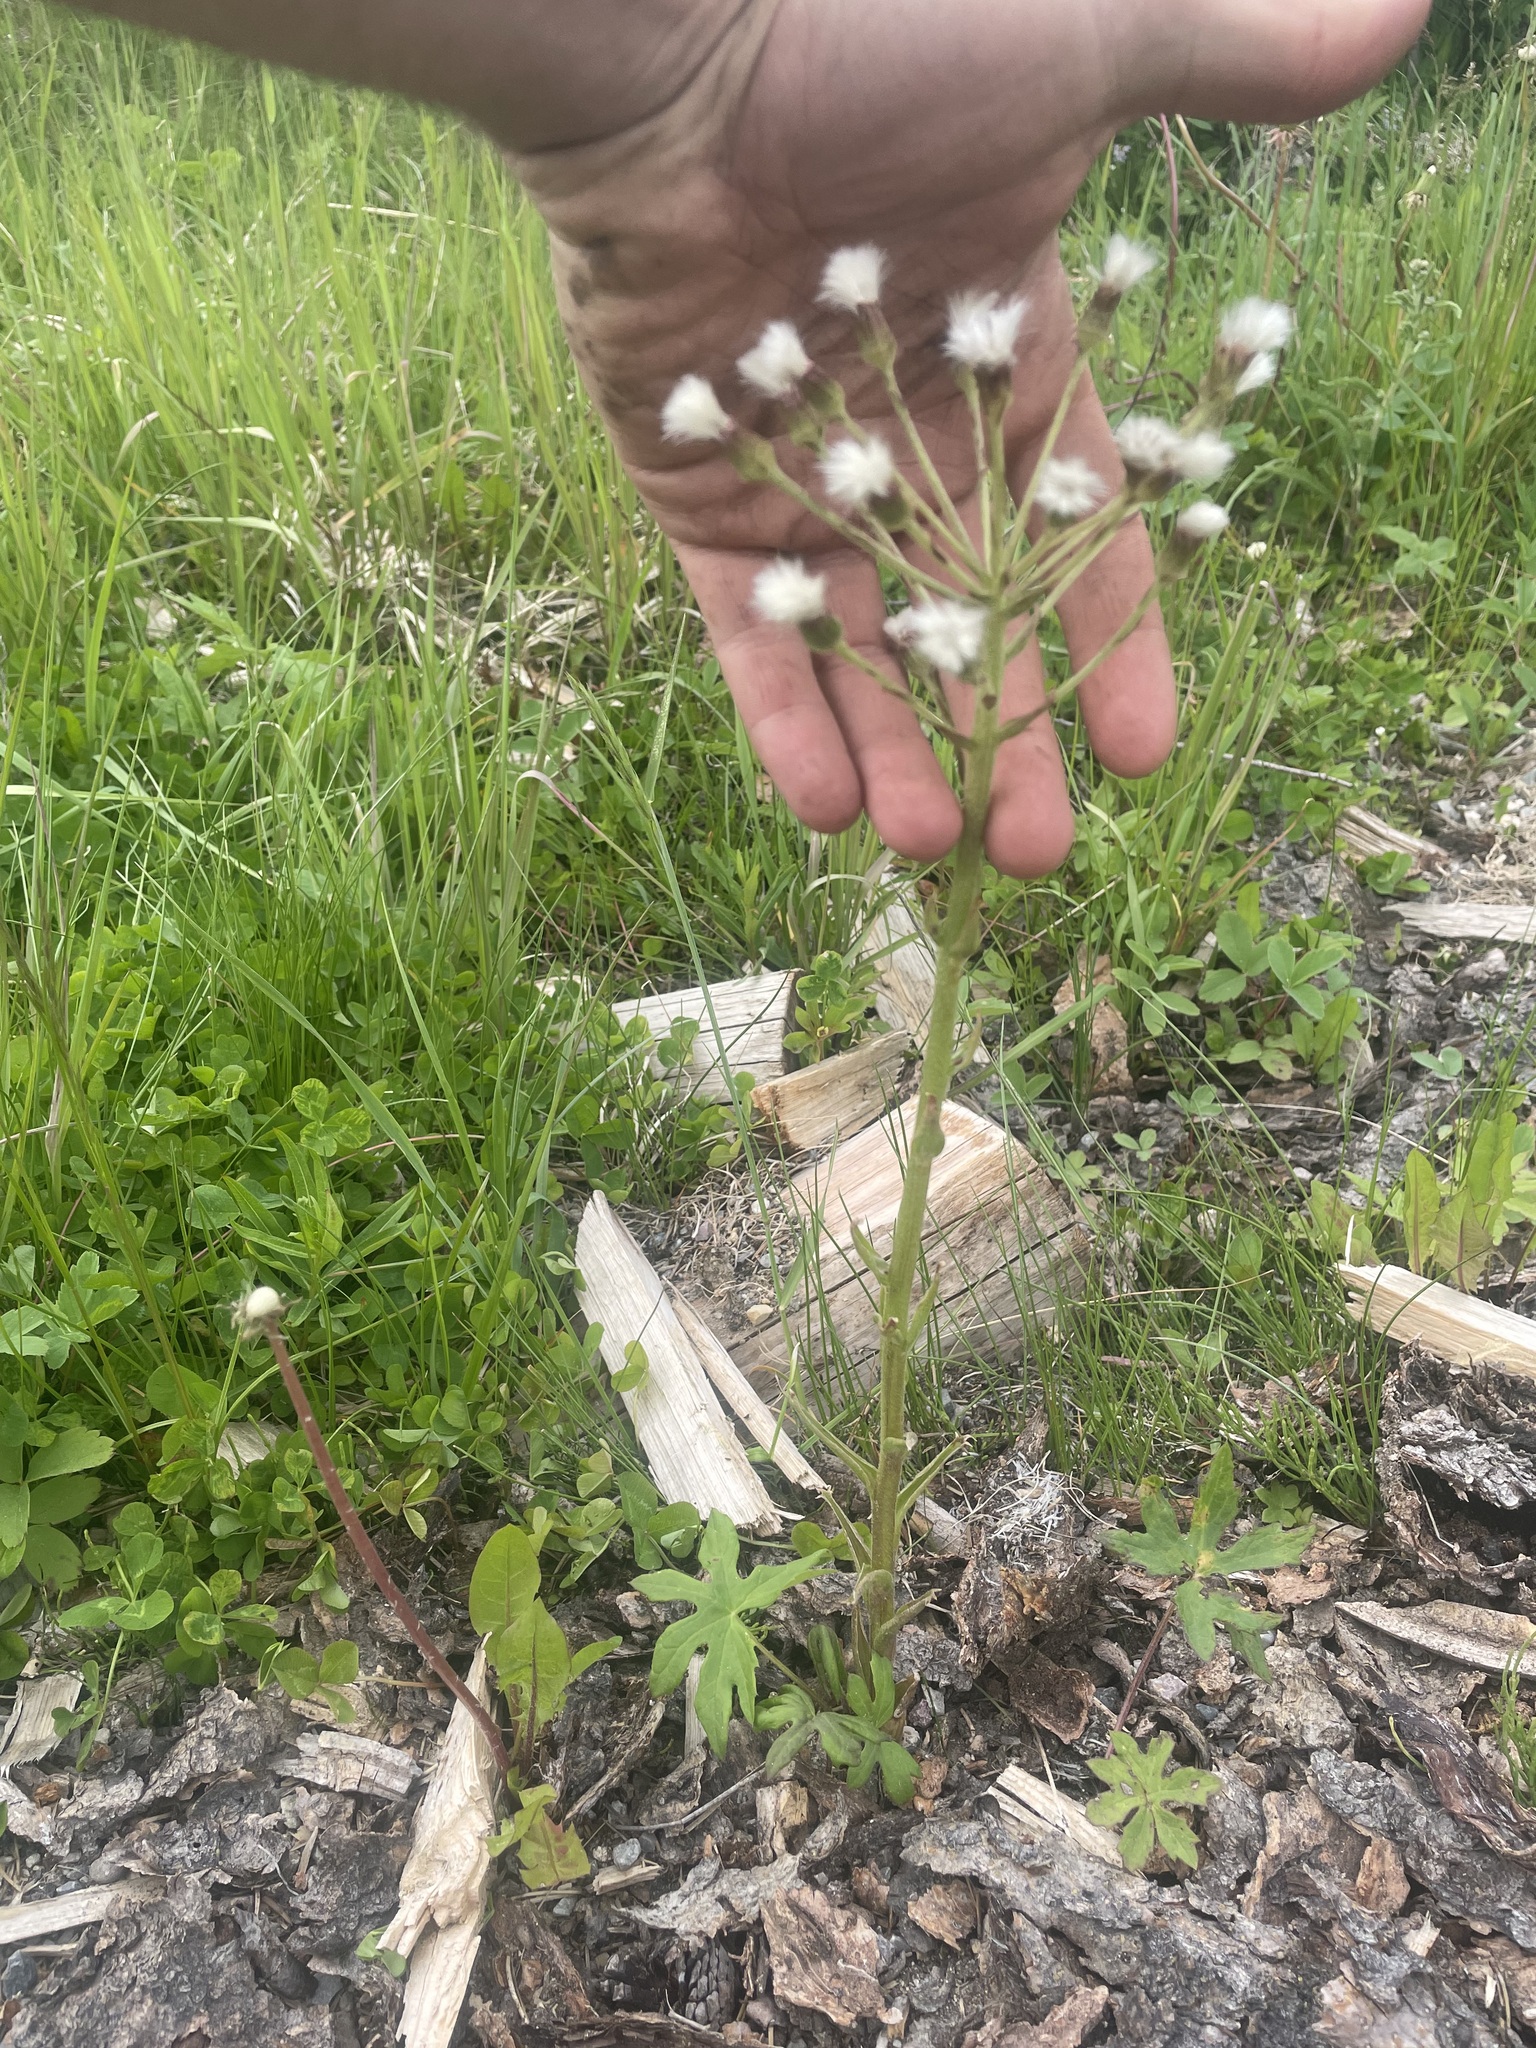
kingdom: Plantae
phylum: Tracheophyta
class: Magnoliopsida
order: Asterales
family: Asteraceae
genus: Petasites
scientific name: Petasites frigidus
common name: Arctic butterbur
